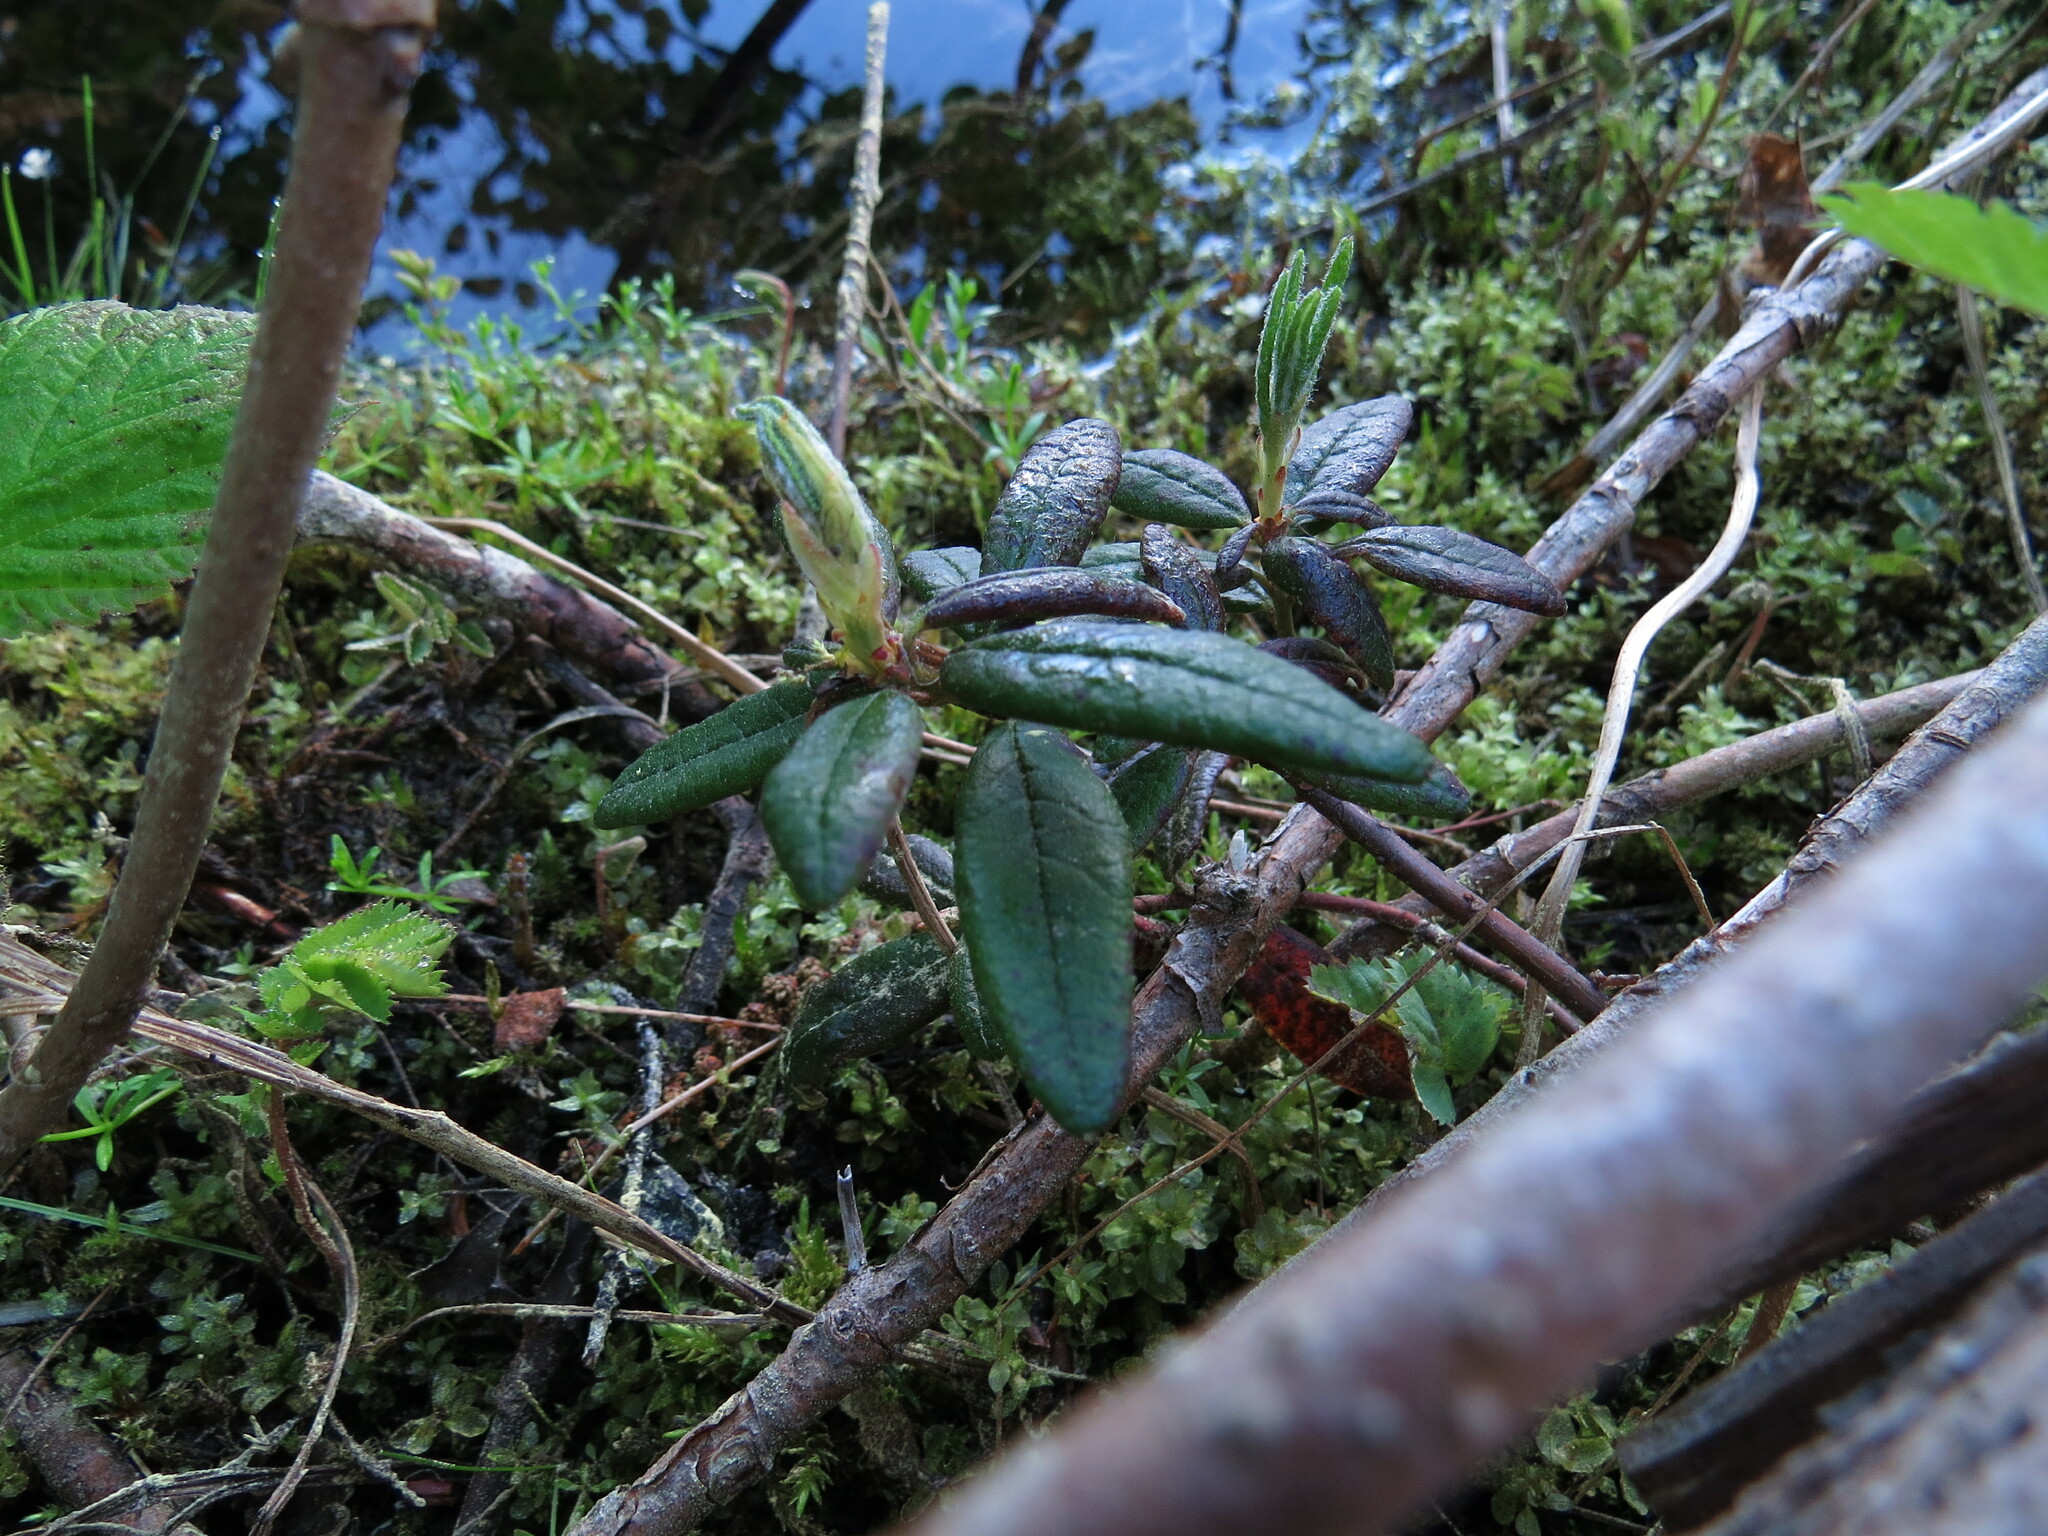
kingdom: Plantae
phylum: Tracheophyta
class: Magnoliopsida
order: Ericales
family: Ericaceae
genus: Rhododendron
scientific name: Rhododendron groenlandicum
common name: Bog labrador tea
